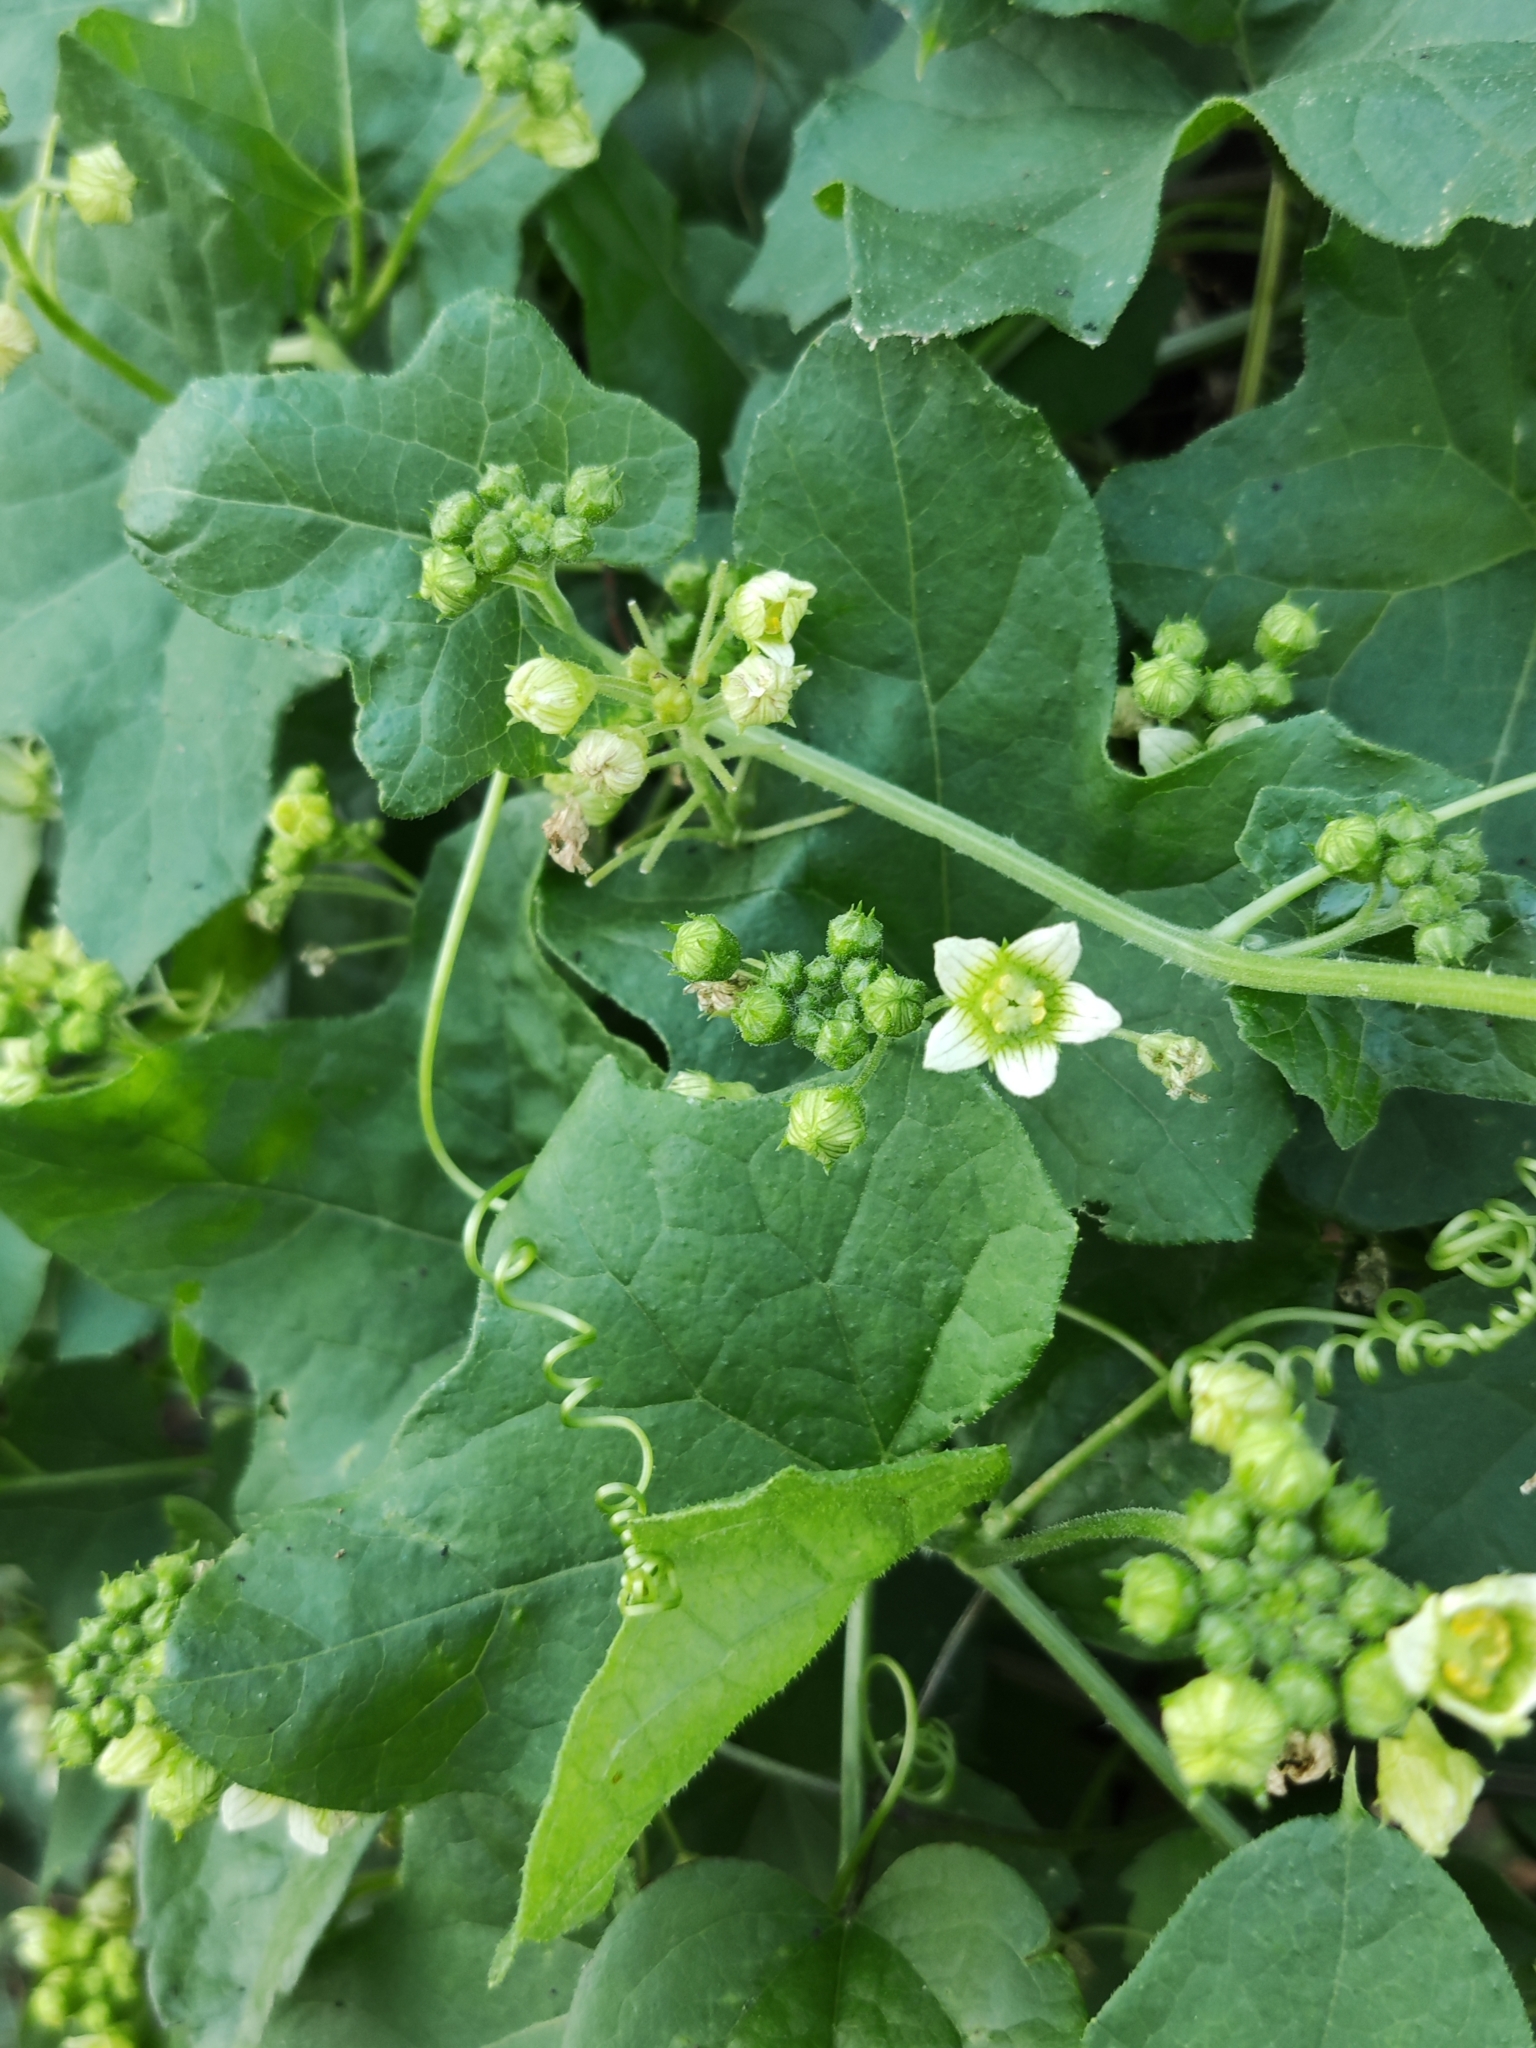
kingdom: Plantae
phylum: Tracheophyta
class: Magnoliopsida
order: Cucurbitales
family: Cucurbitaceae
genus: Bryonia
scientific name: Bryonia cretica
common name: Cretan bryony
